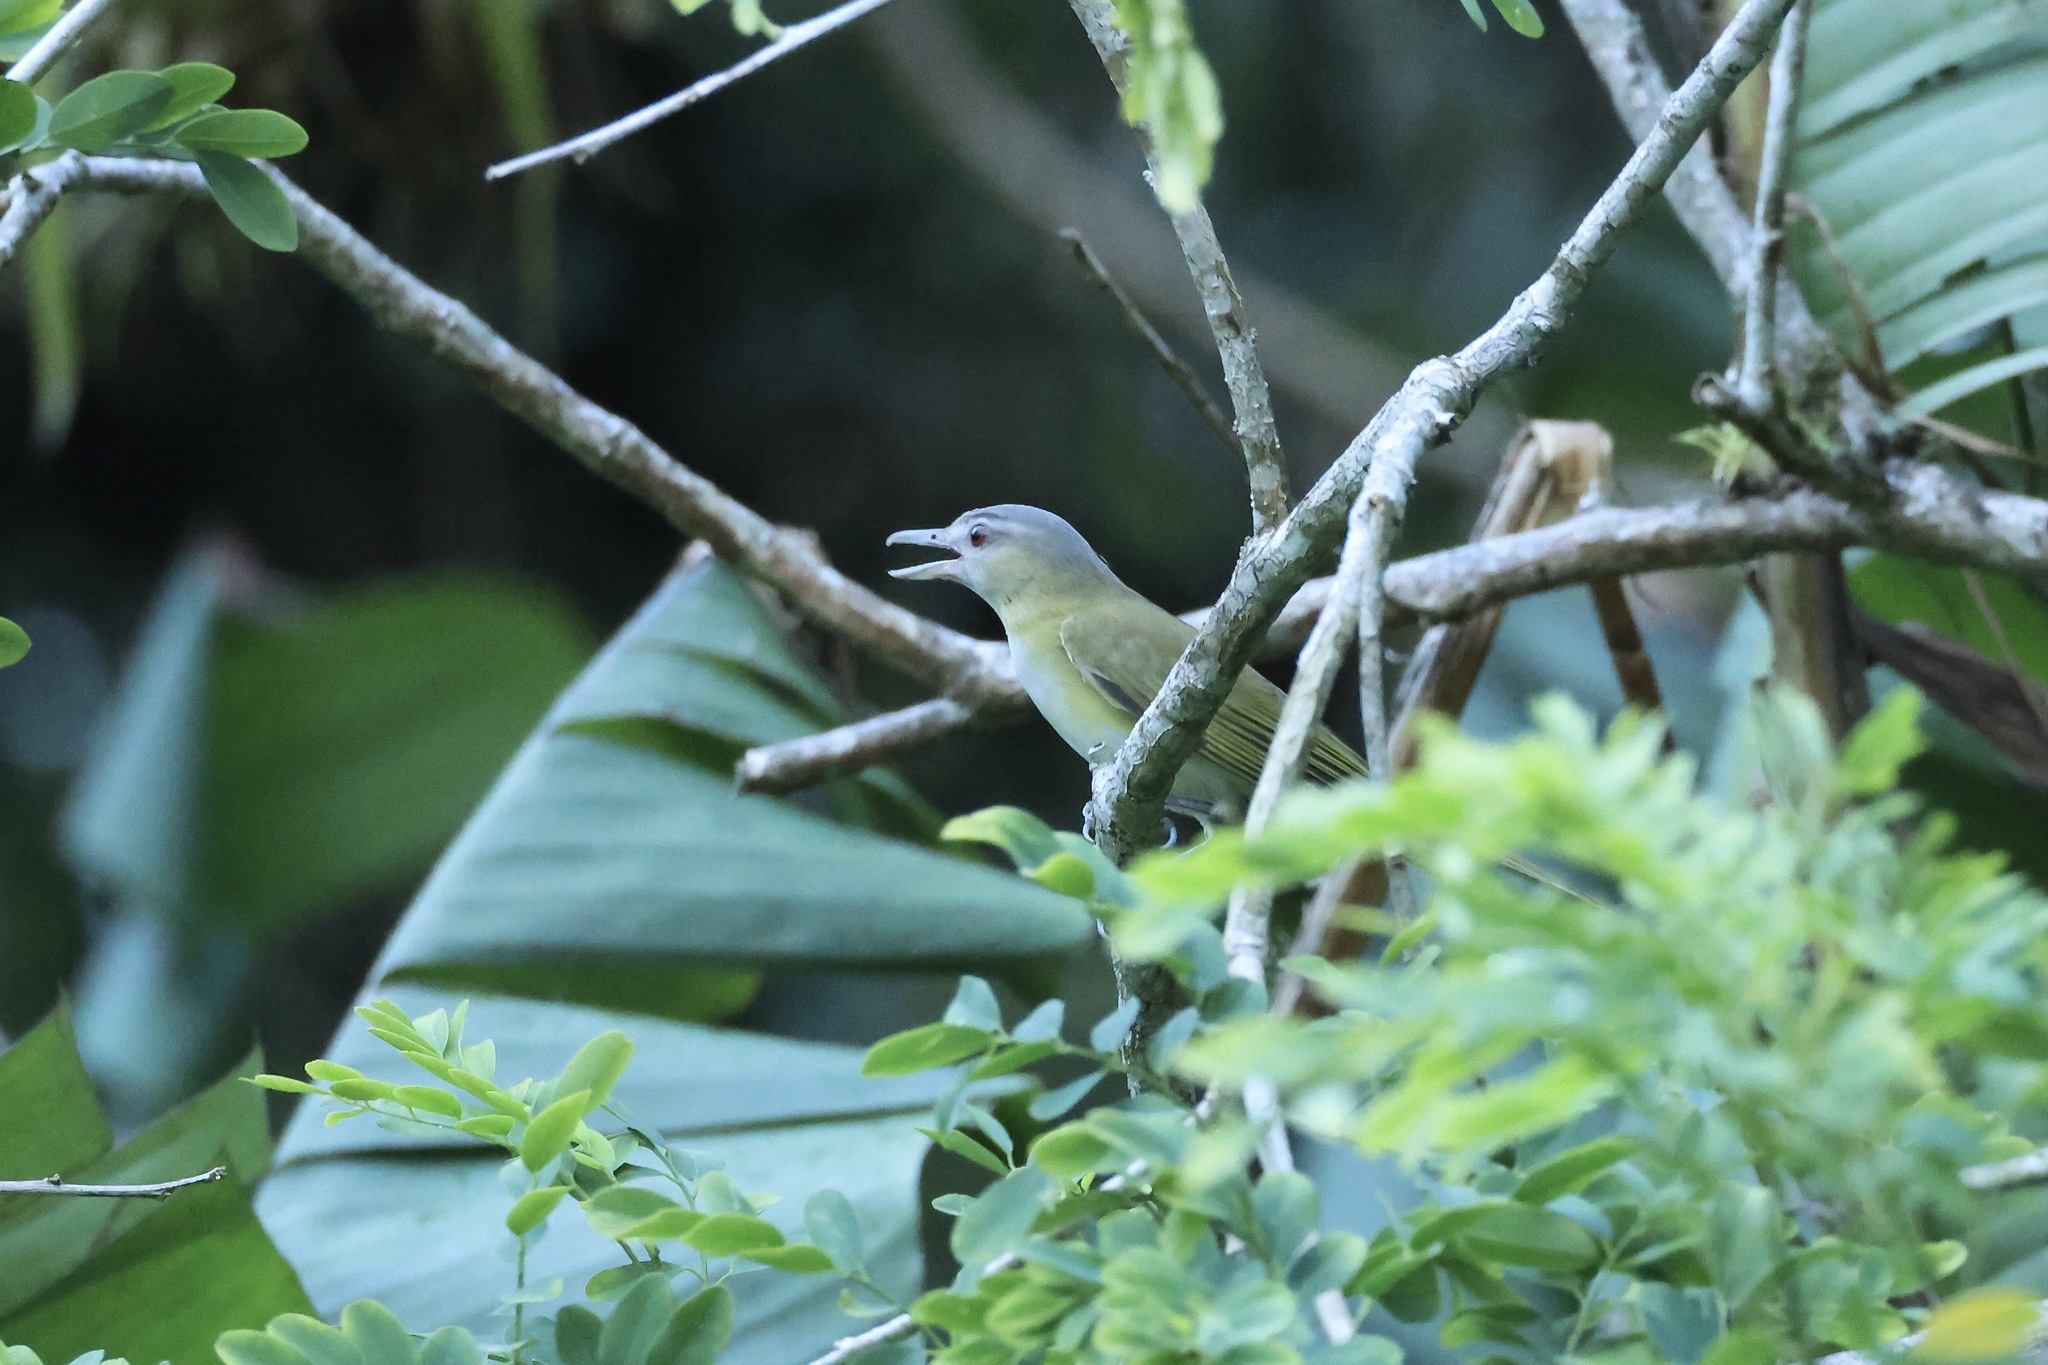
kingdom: Animalia
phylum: Chordata
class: Aves
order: Passeriformes
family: Vireonidae
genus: Vireo
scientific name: Vireo flavoviridis
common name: Yellow-green vireo
